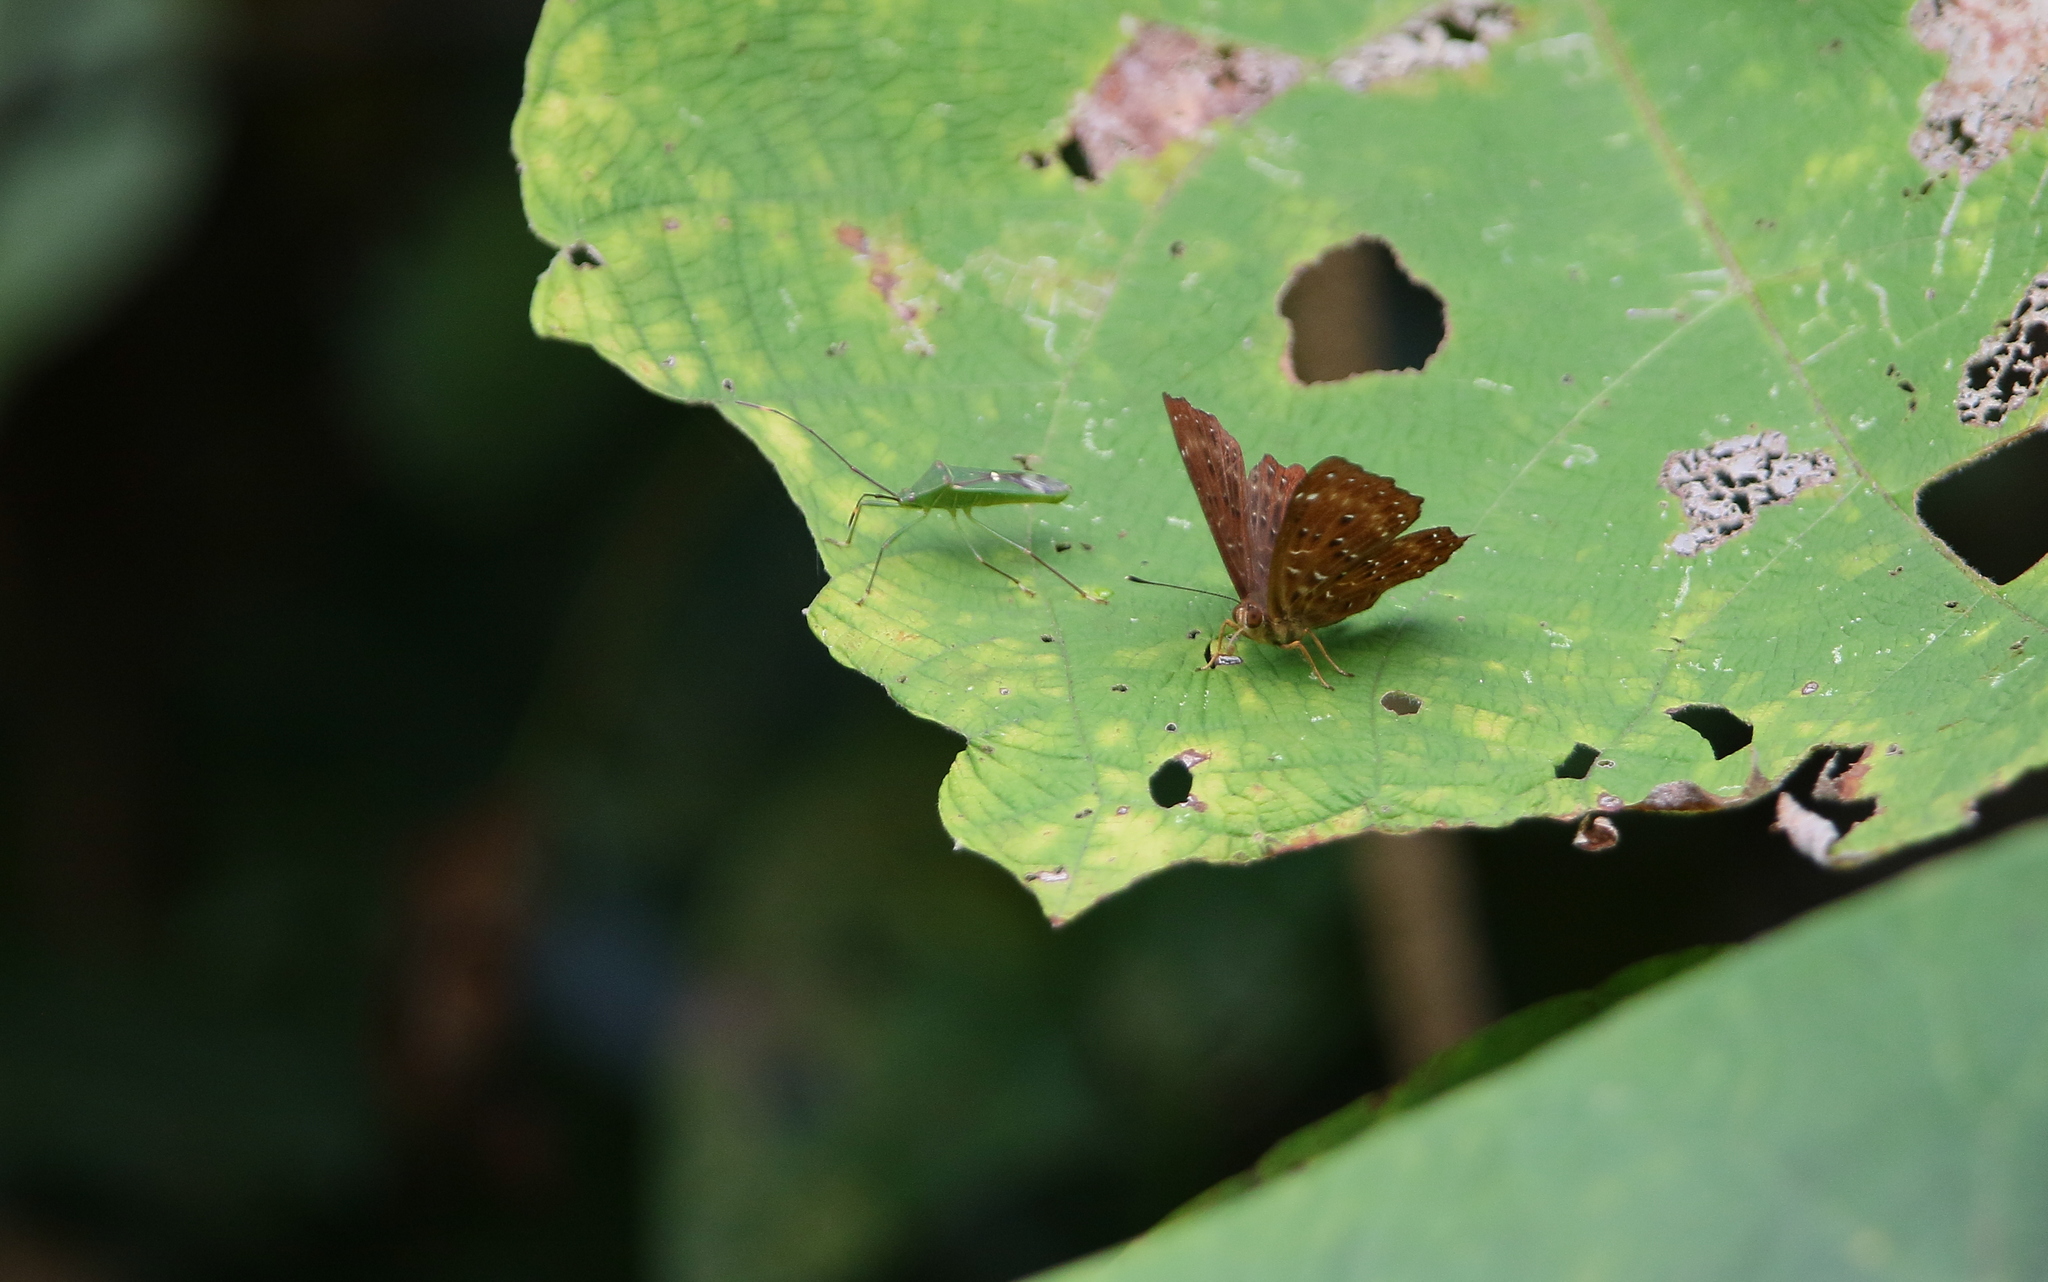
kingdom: Animalia
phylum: Arthropoda
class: Insecta
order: Lepidoptera
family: Riodinidae
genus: Zemeros
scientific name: Zemeros flegyas
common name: Punchinello
